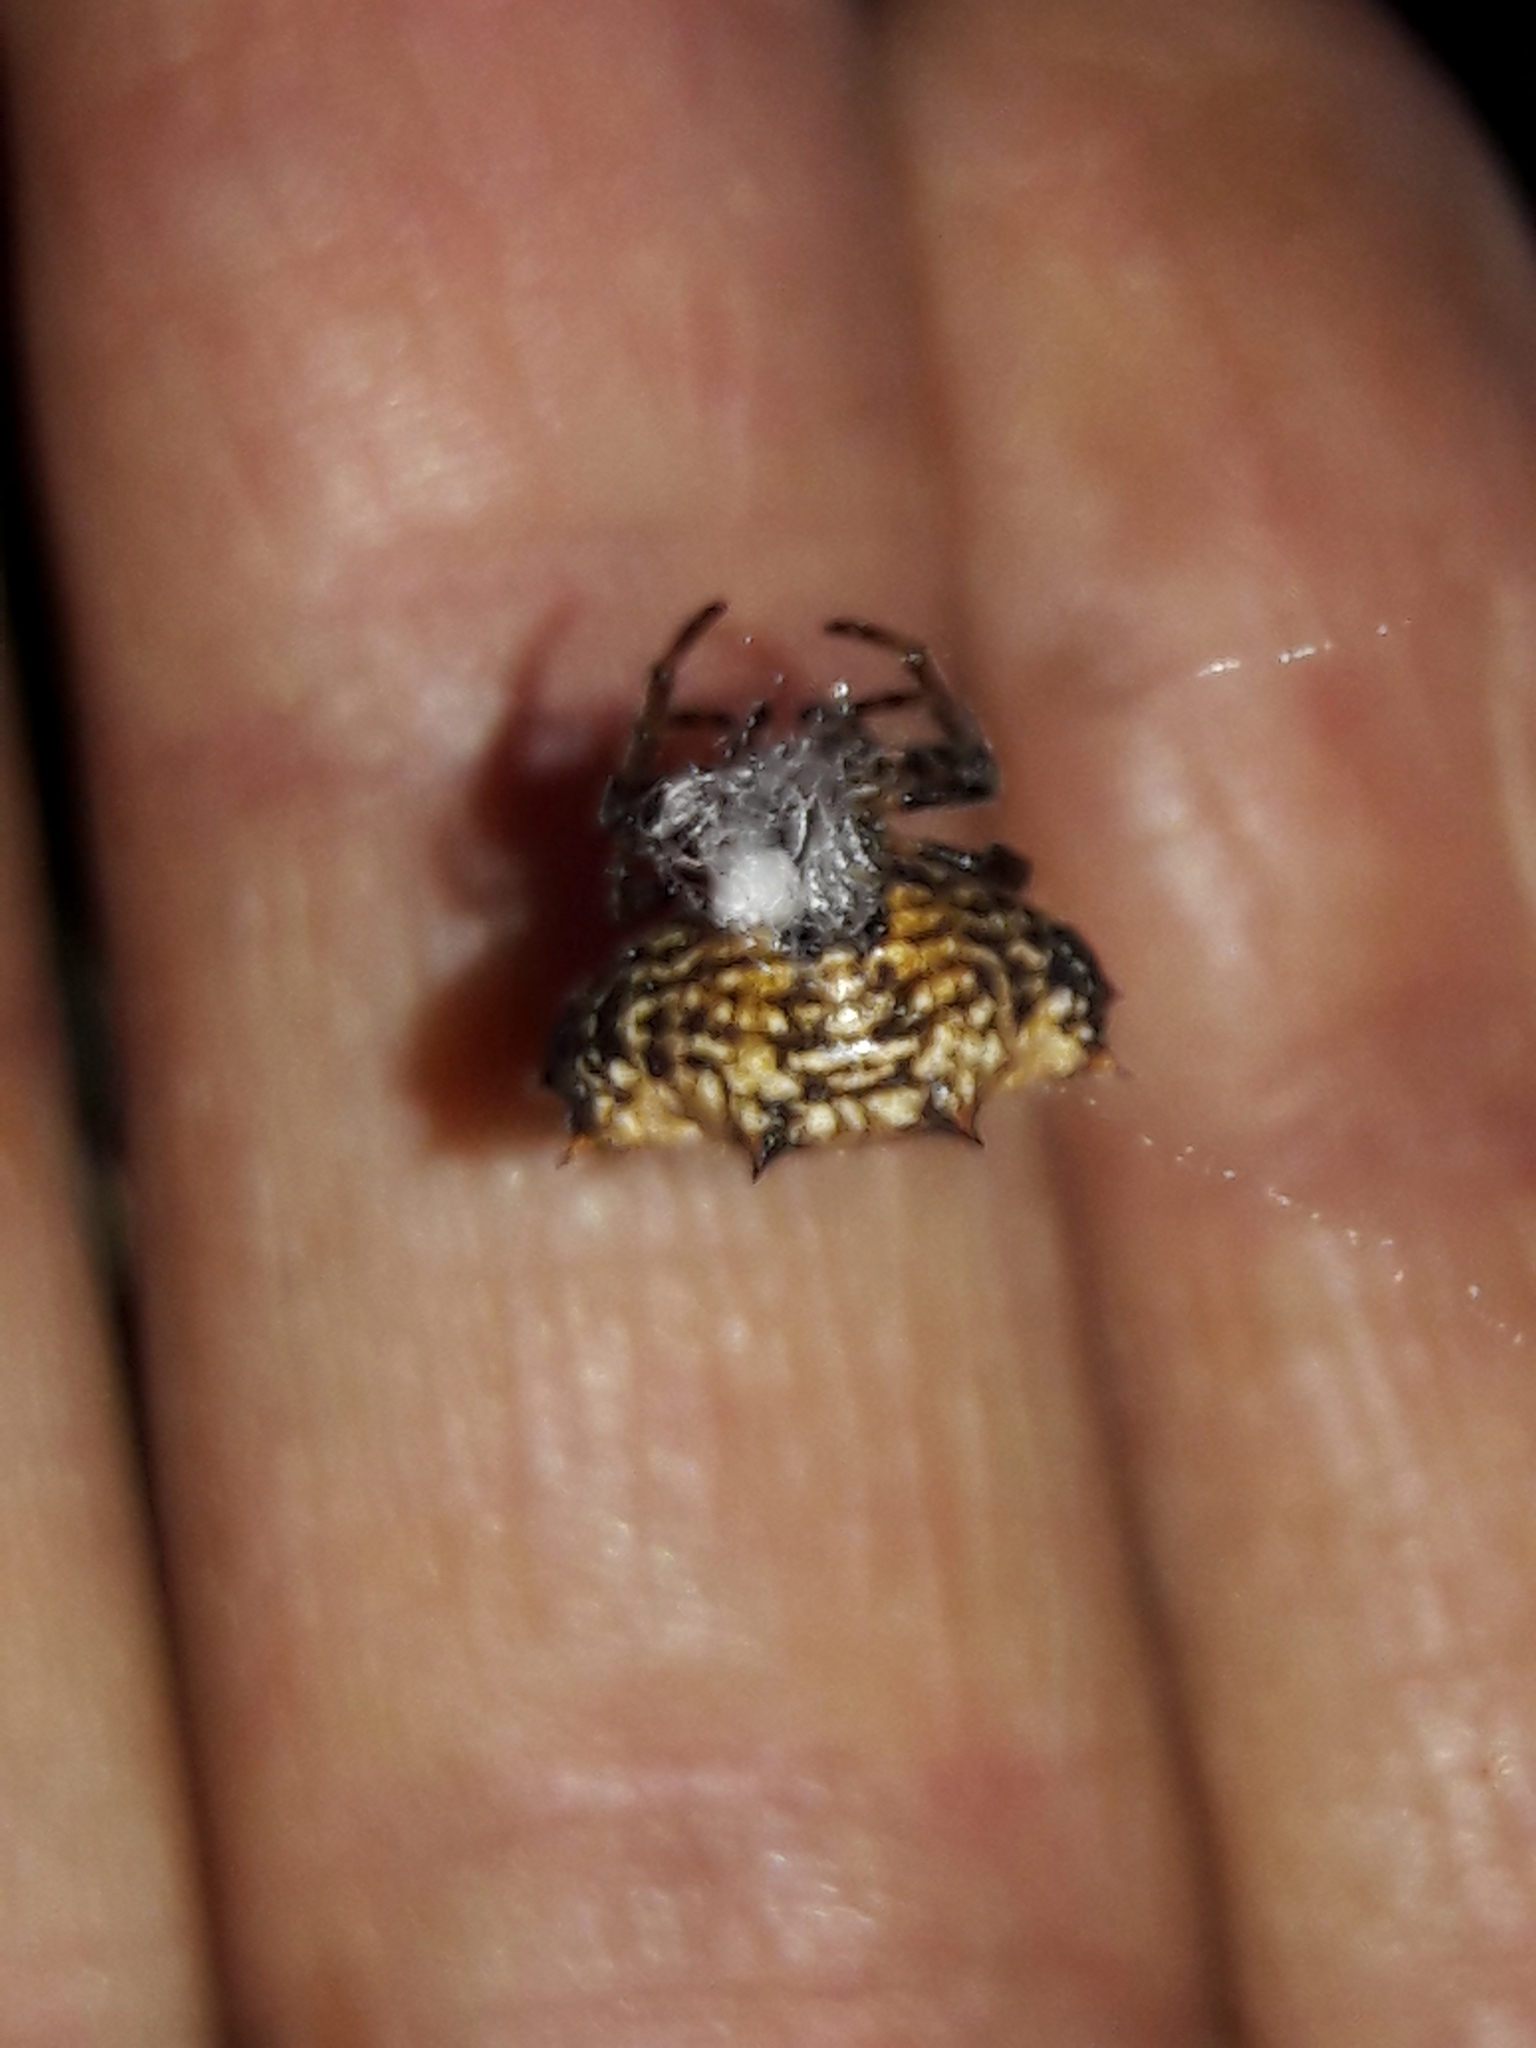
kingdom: Animalia
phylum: Arthropoda
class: Arachnida
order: Araneae
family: Araneidae
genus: Gasteracantha
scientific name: Gasteracantha cancriformis
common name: Orb weavers
